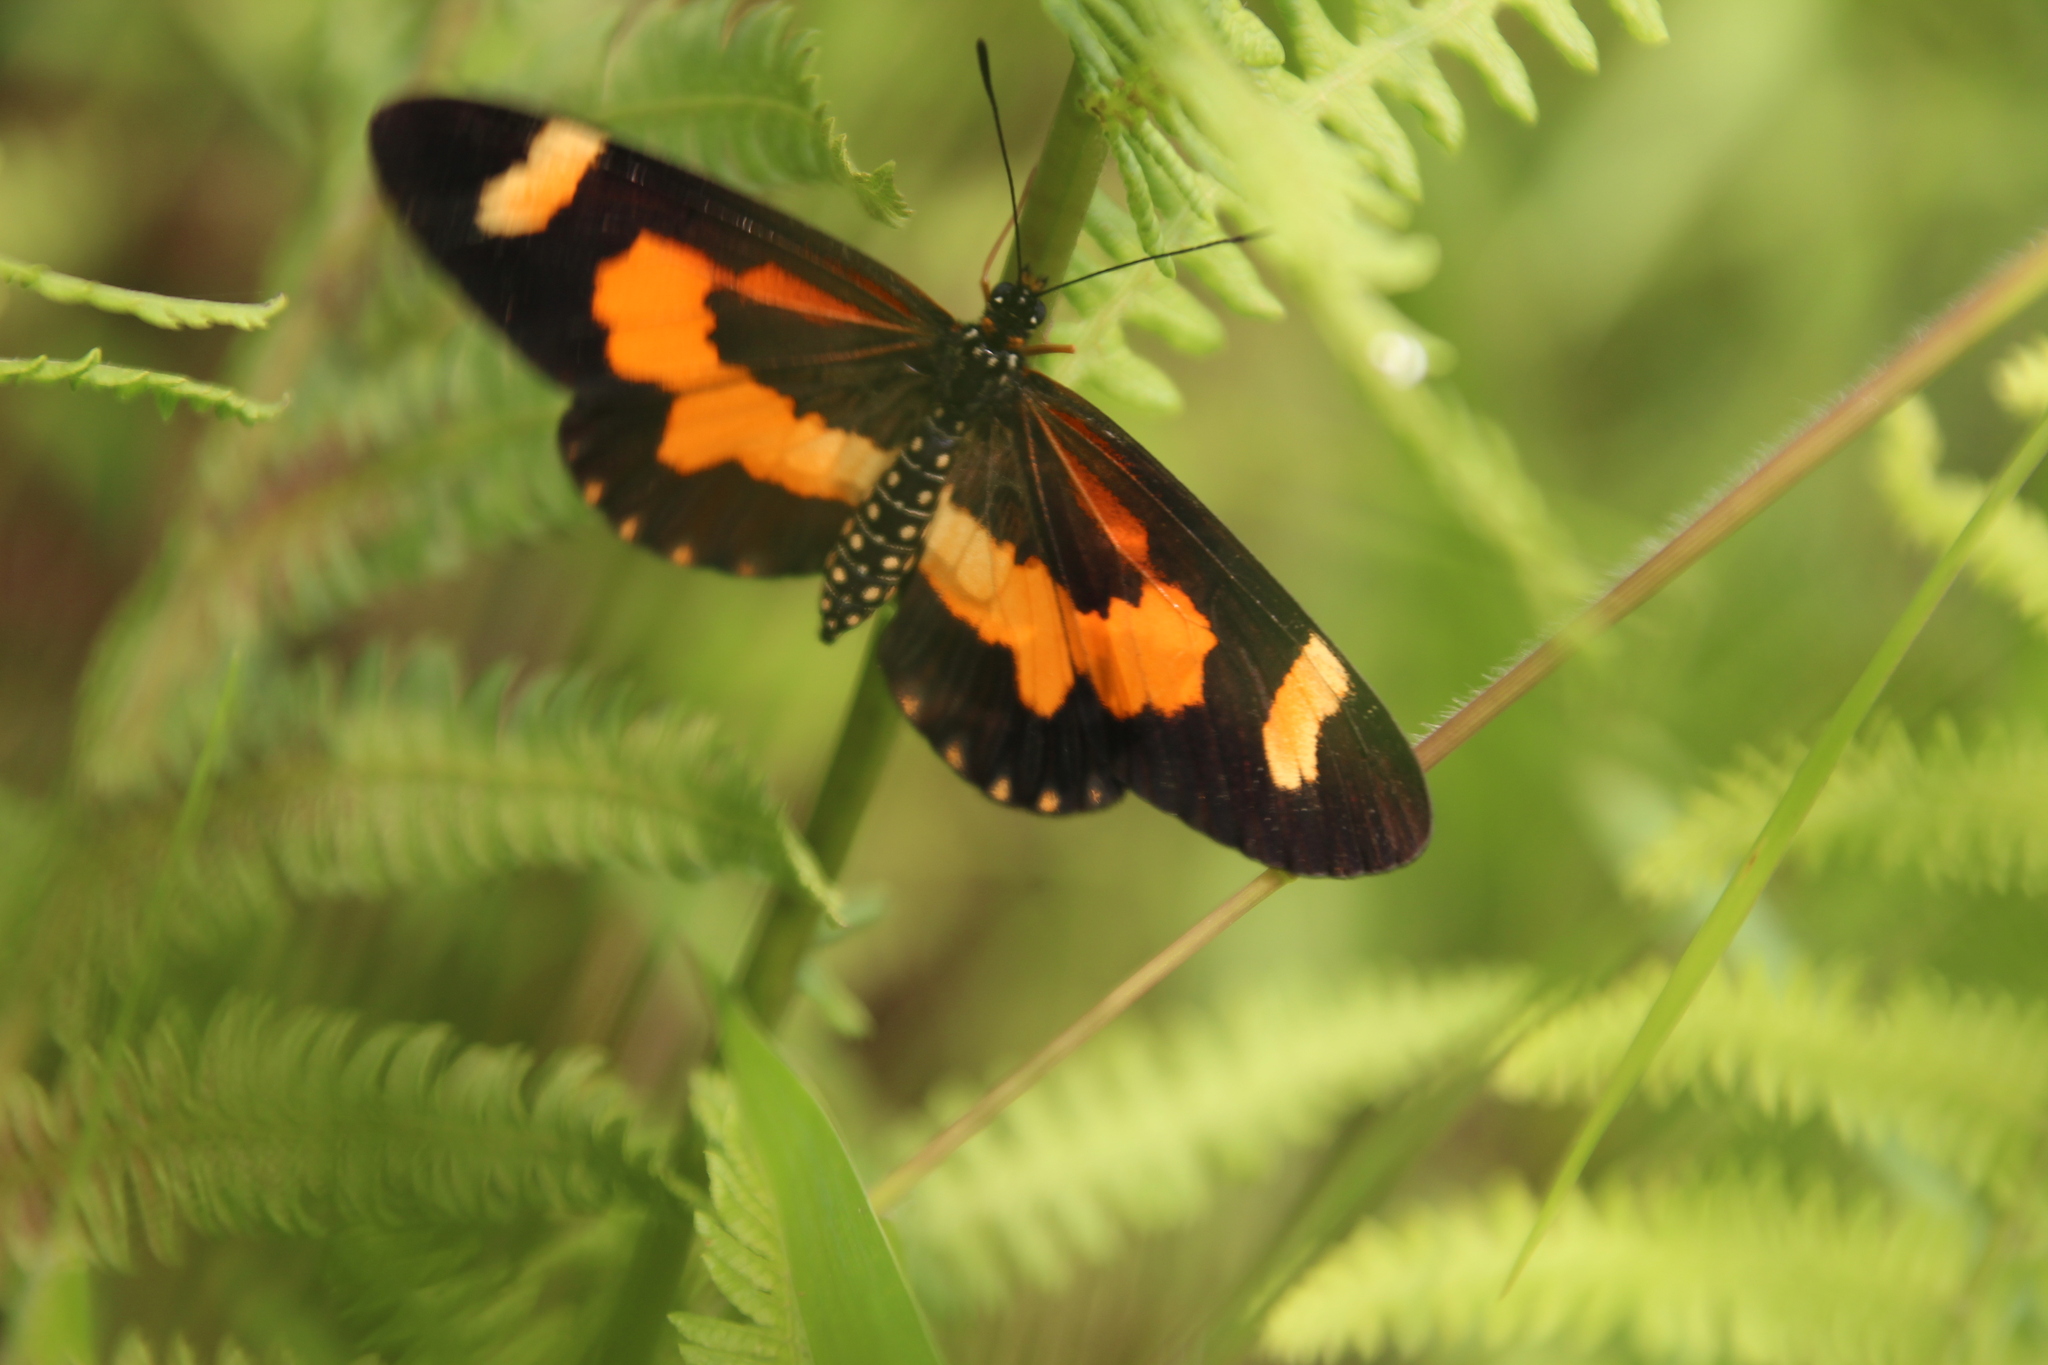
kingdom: Animalia
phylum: Arthropoda
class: Insecta
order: Lepidoptera
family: Nymphalidae
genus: Acraea
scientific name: Acraea
